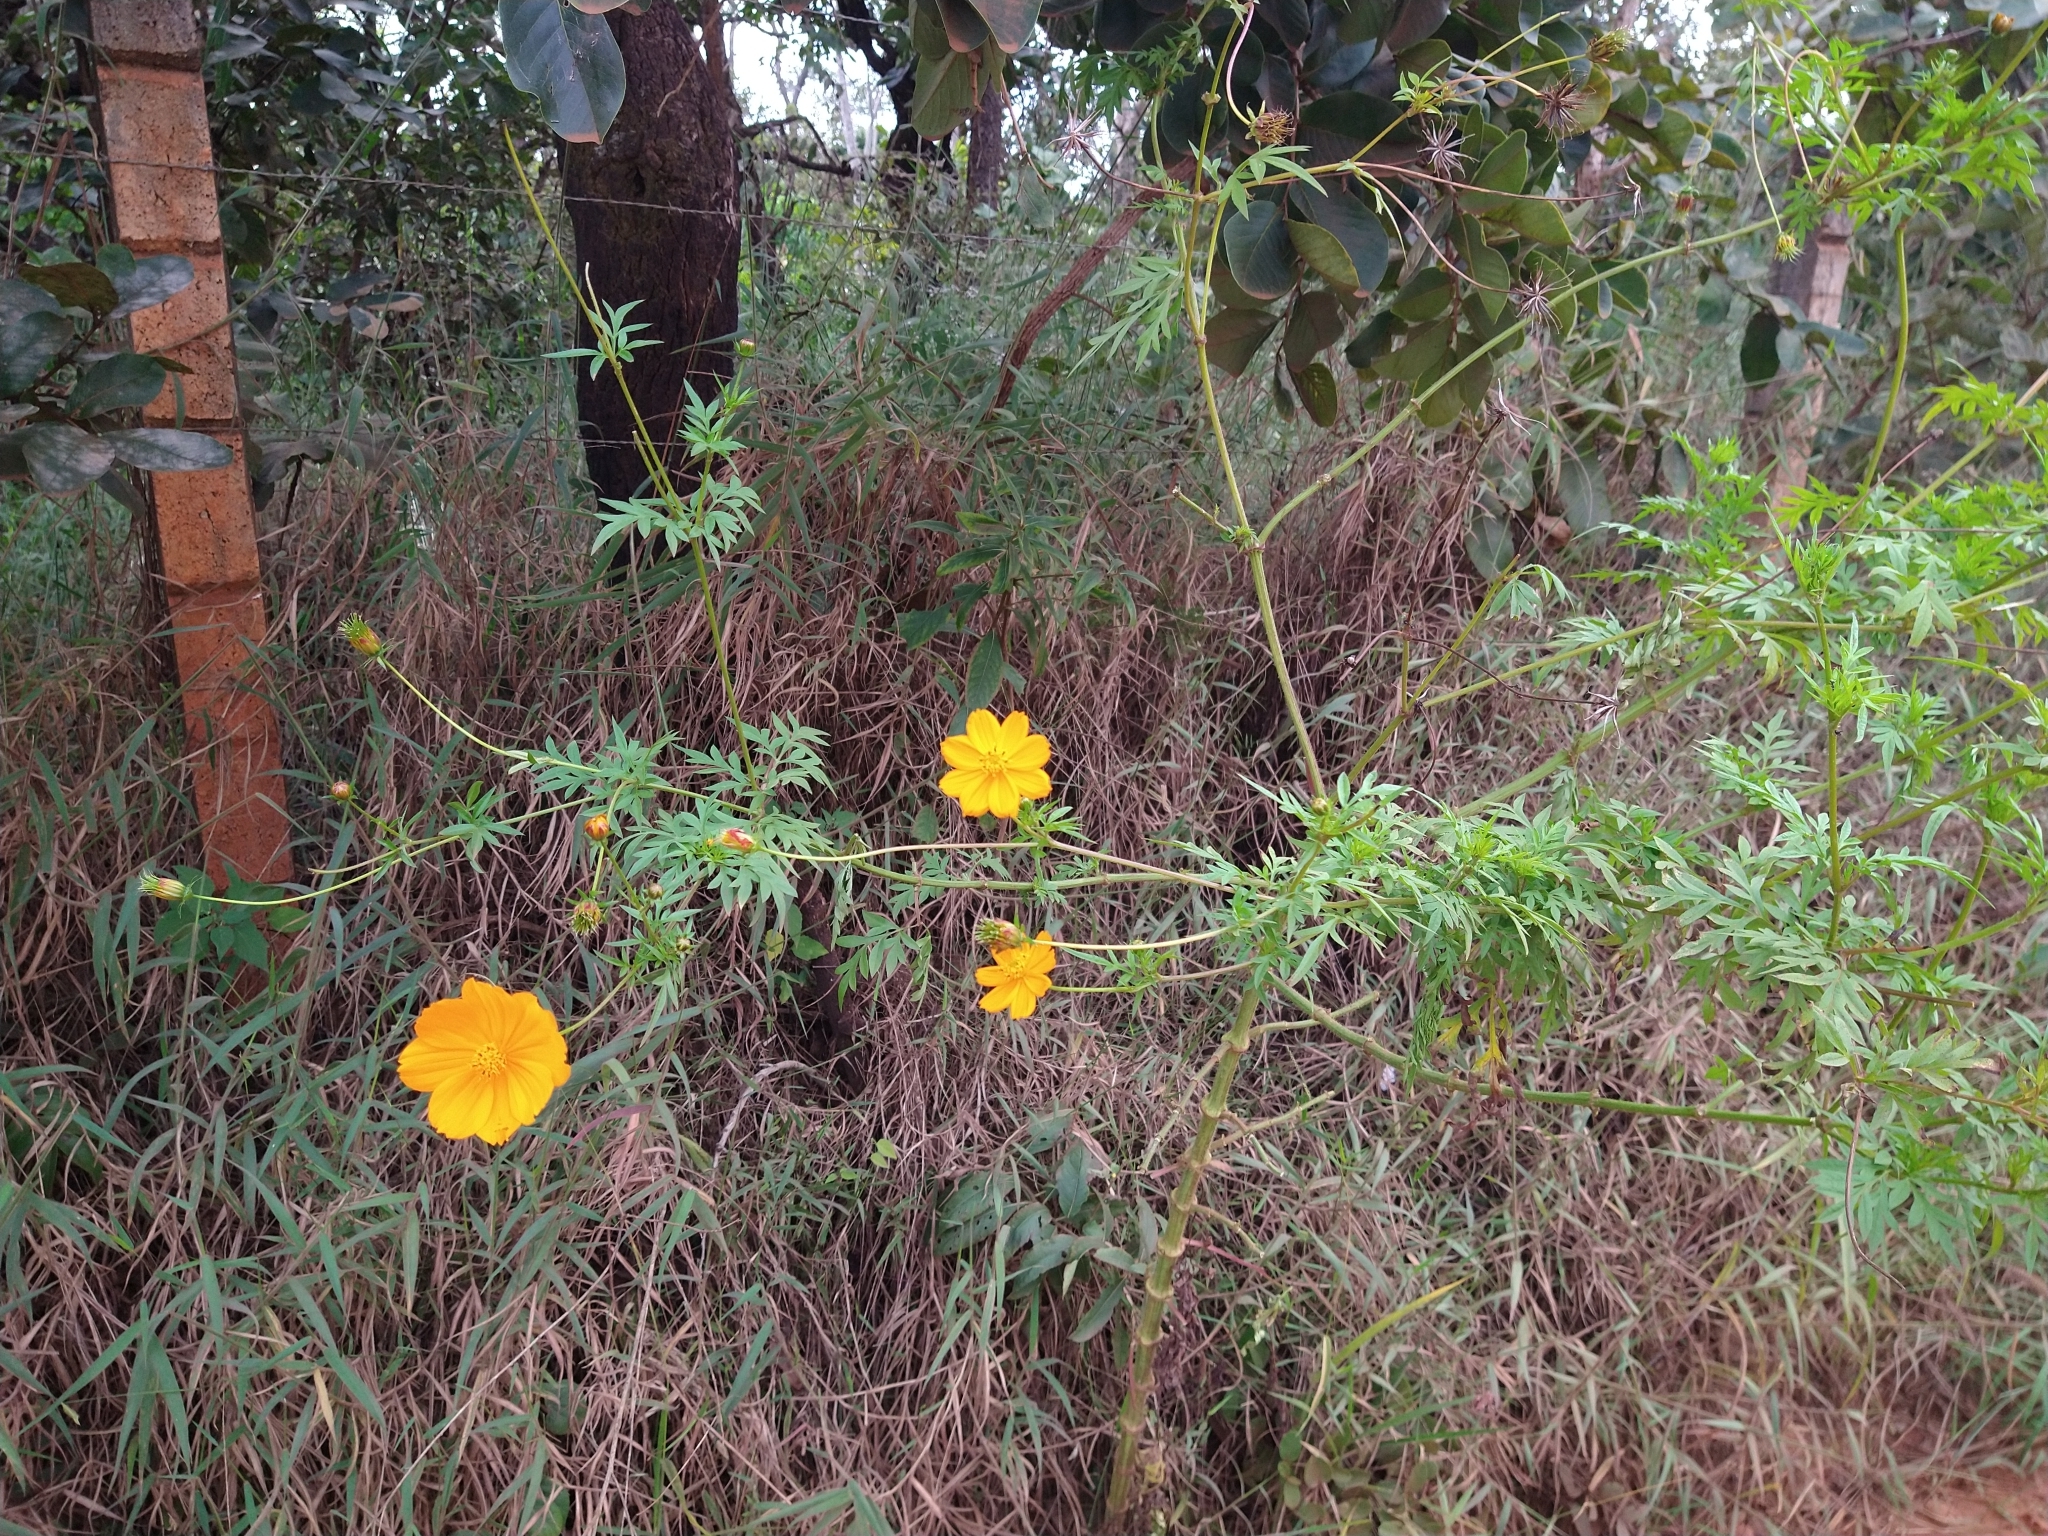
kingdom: Plantae
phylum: Tracheophyta
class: Magnoliopsida
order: Asterales
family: Asteraceae
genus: Cosmos
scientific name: Cosmos sulphureus
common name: Sulphur cosmos
